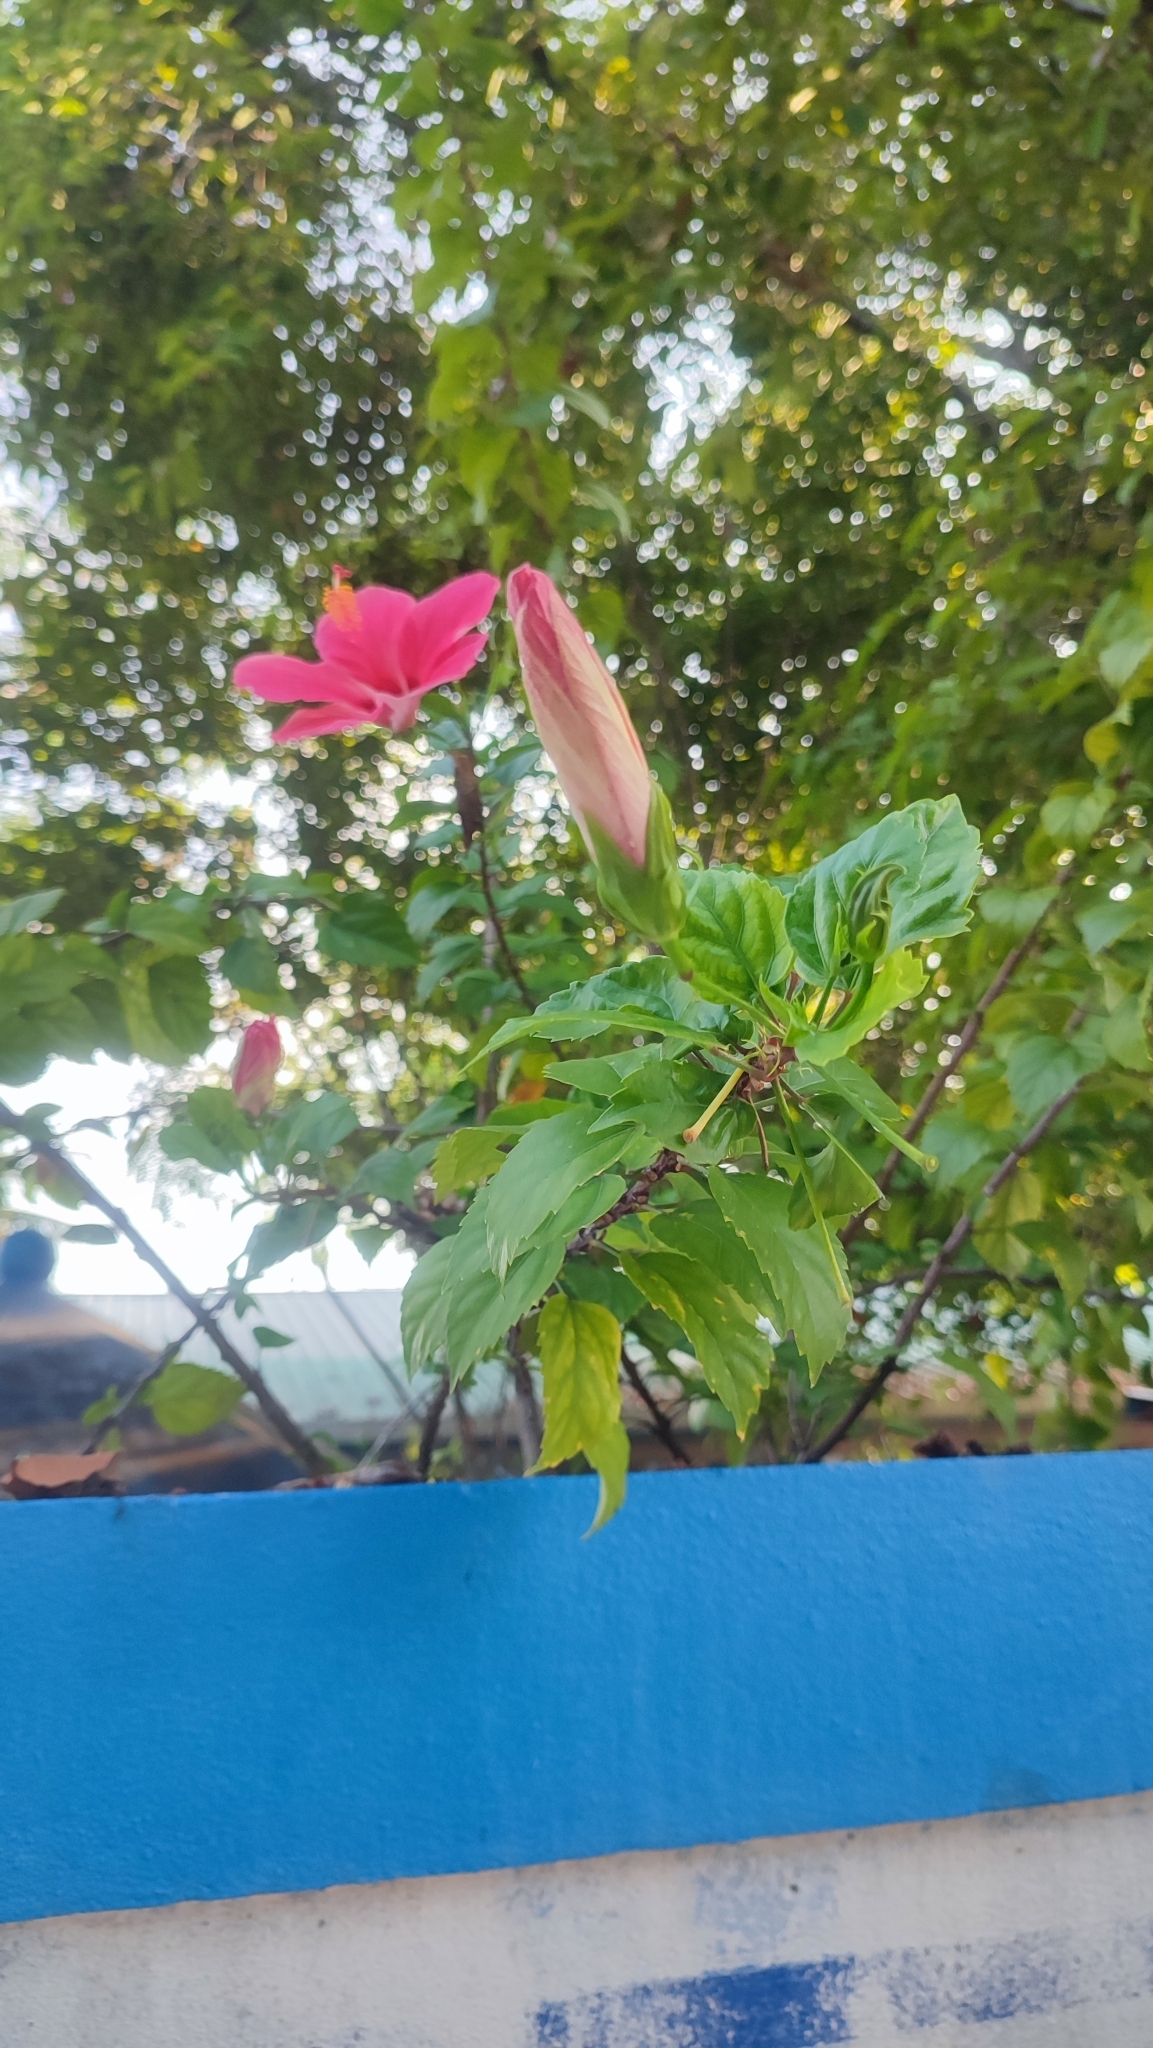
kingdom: Plantae
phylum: Tracheophyta
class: Magnoliopsida
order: Malvales
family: Malvaceae
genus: Hibiscus
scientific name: Hibiscus rosa-sinensis
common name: Hibiscus
